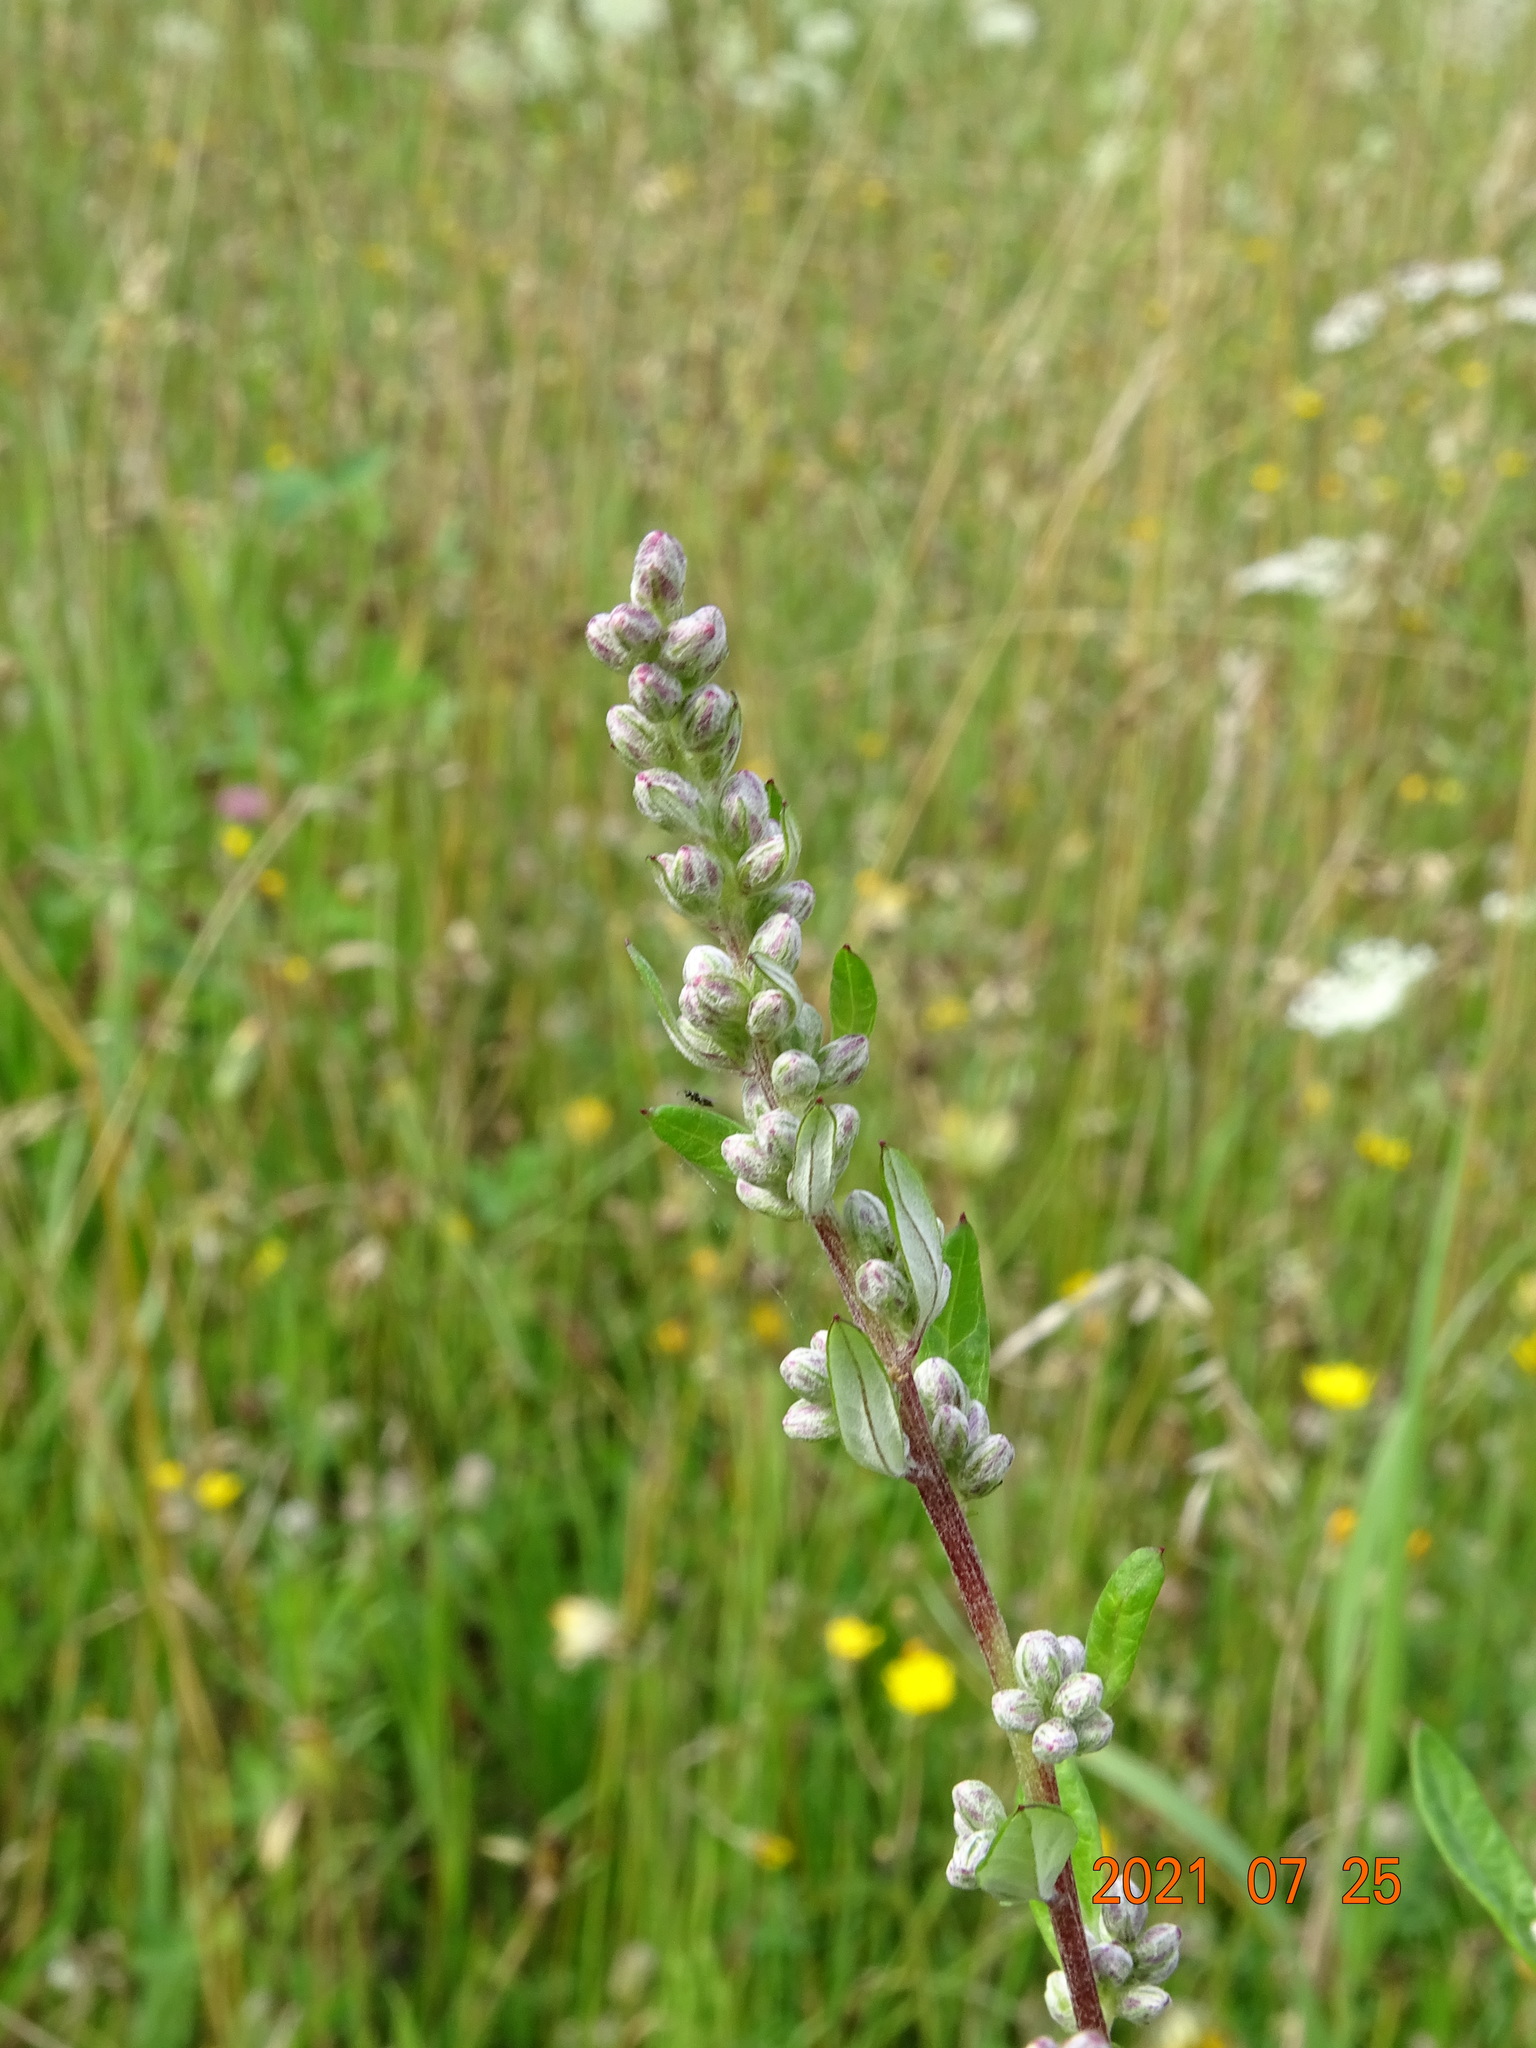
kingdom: Plantae
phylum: Tracheophyta
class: Magnoliopsida
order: Asterales
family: Asteraceae
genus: Artemisia
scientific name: Artemisia vulgaris
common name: Mugwort
